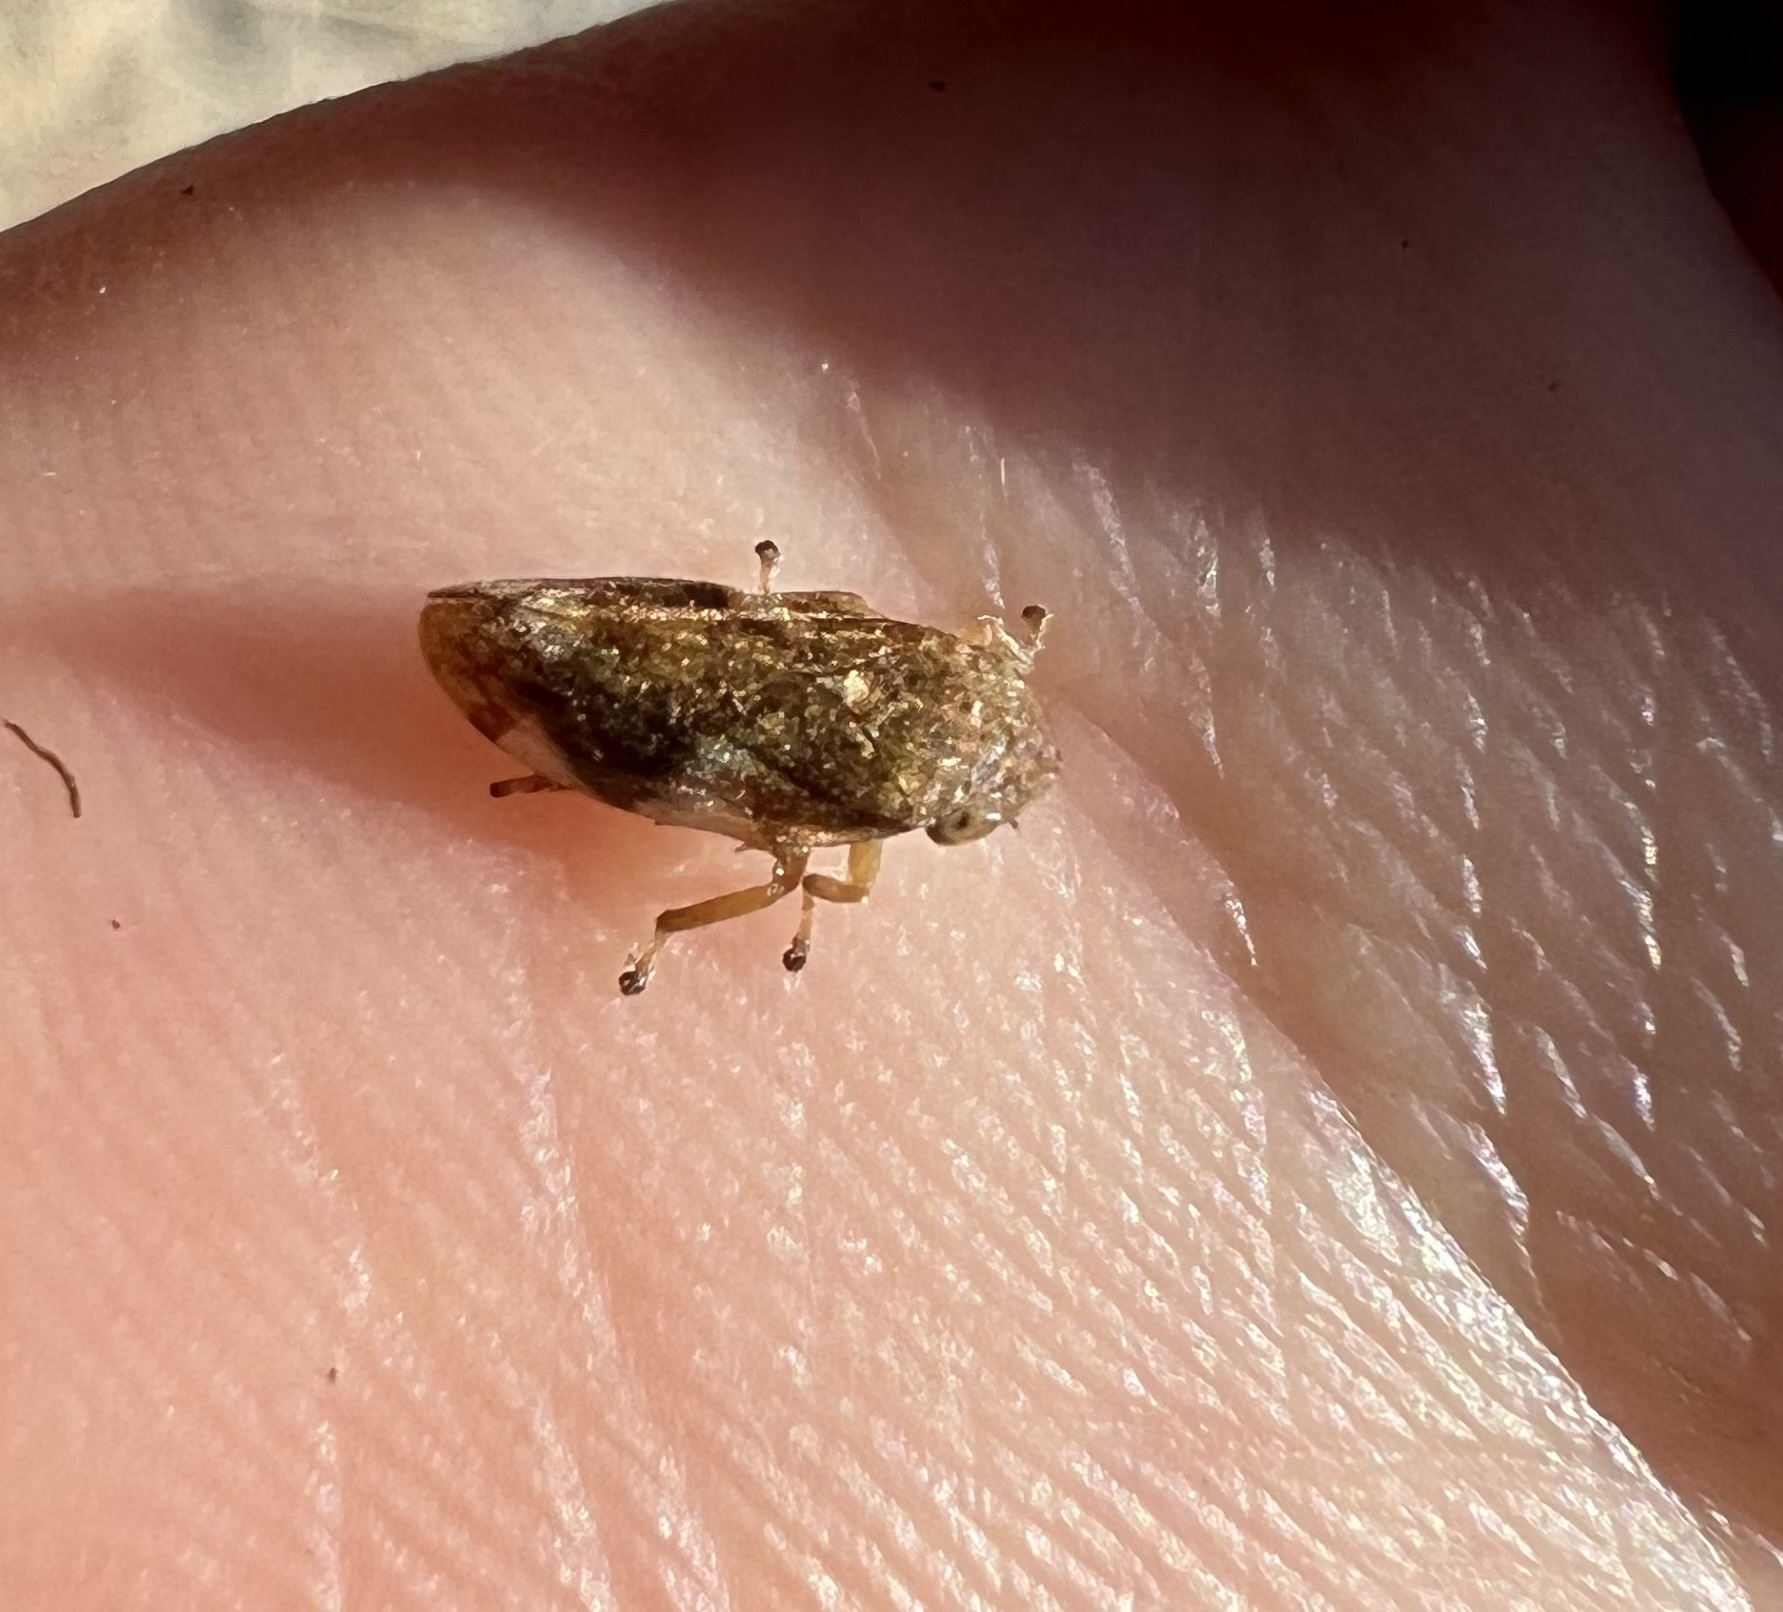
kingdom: Animalia
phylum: Arthropoda
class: Insecta
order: Hemiptera
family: Aphrophoridae
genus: Philaenus
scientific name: Philaenus spumarius
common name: Meadow spittlebug
